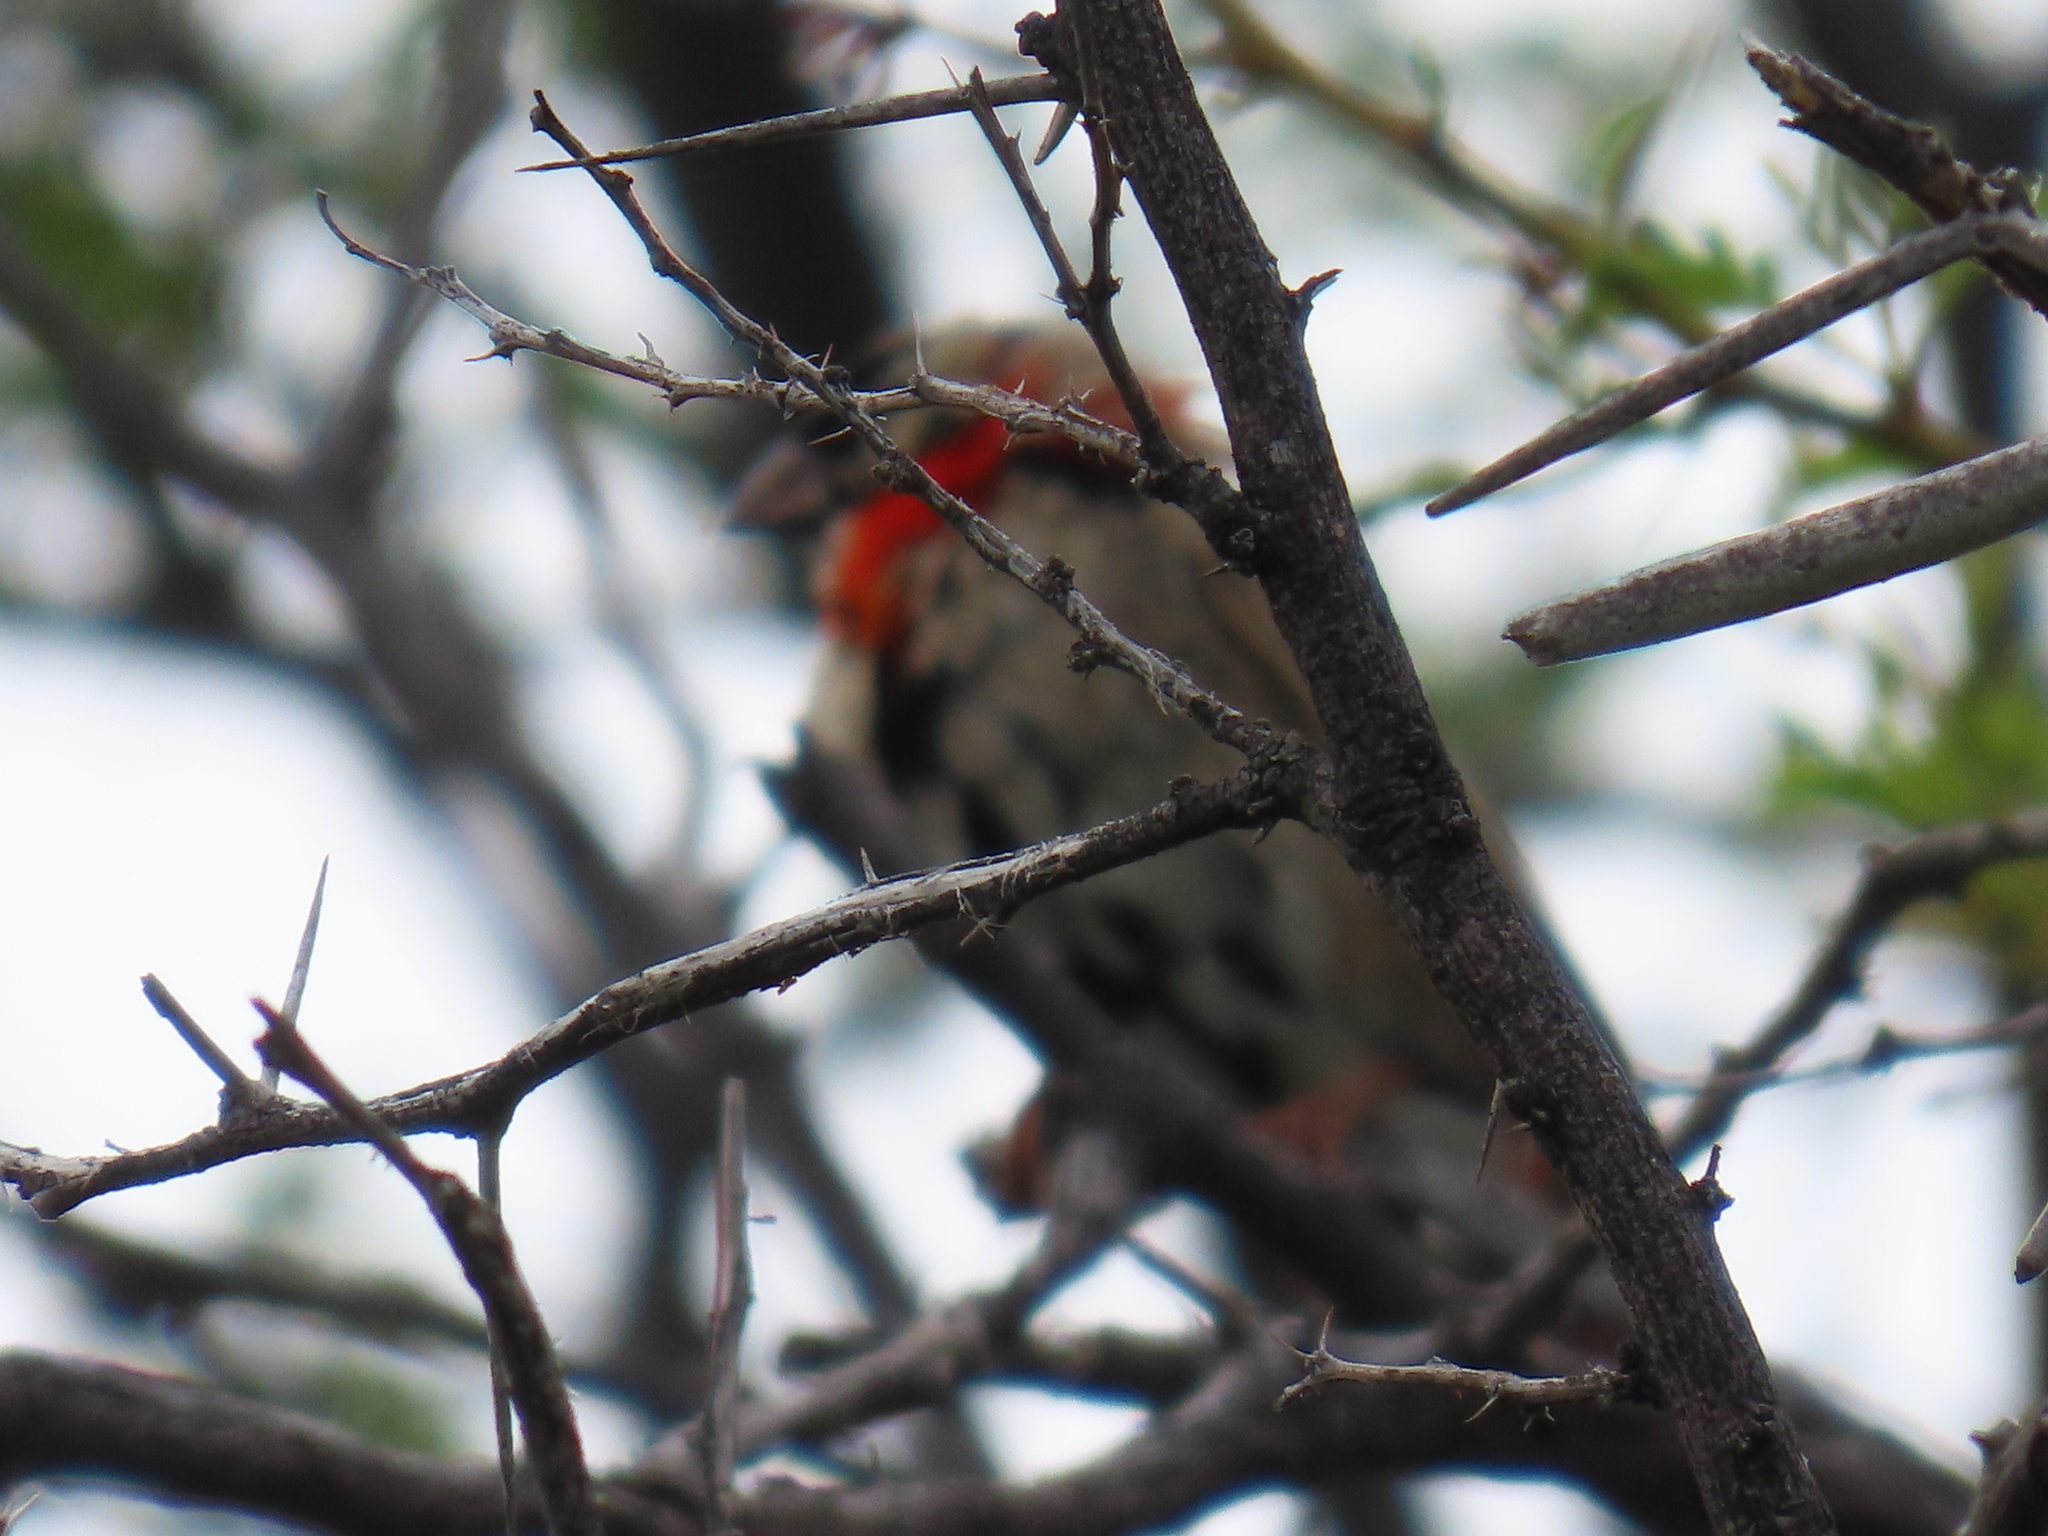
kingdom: Animalia
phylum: Chordata
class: Aves
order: Passeriformes
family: Ploceidae
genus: Euplectes
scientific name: Euplectes orix
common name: Southern red bishop
